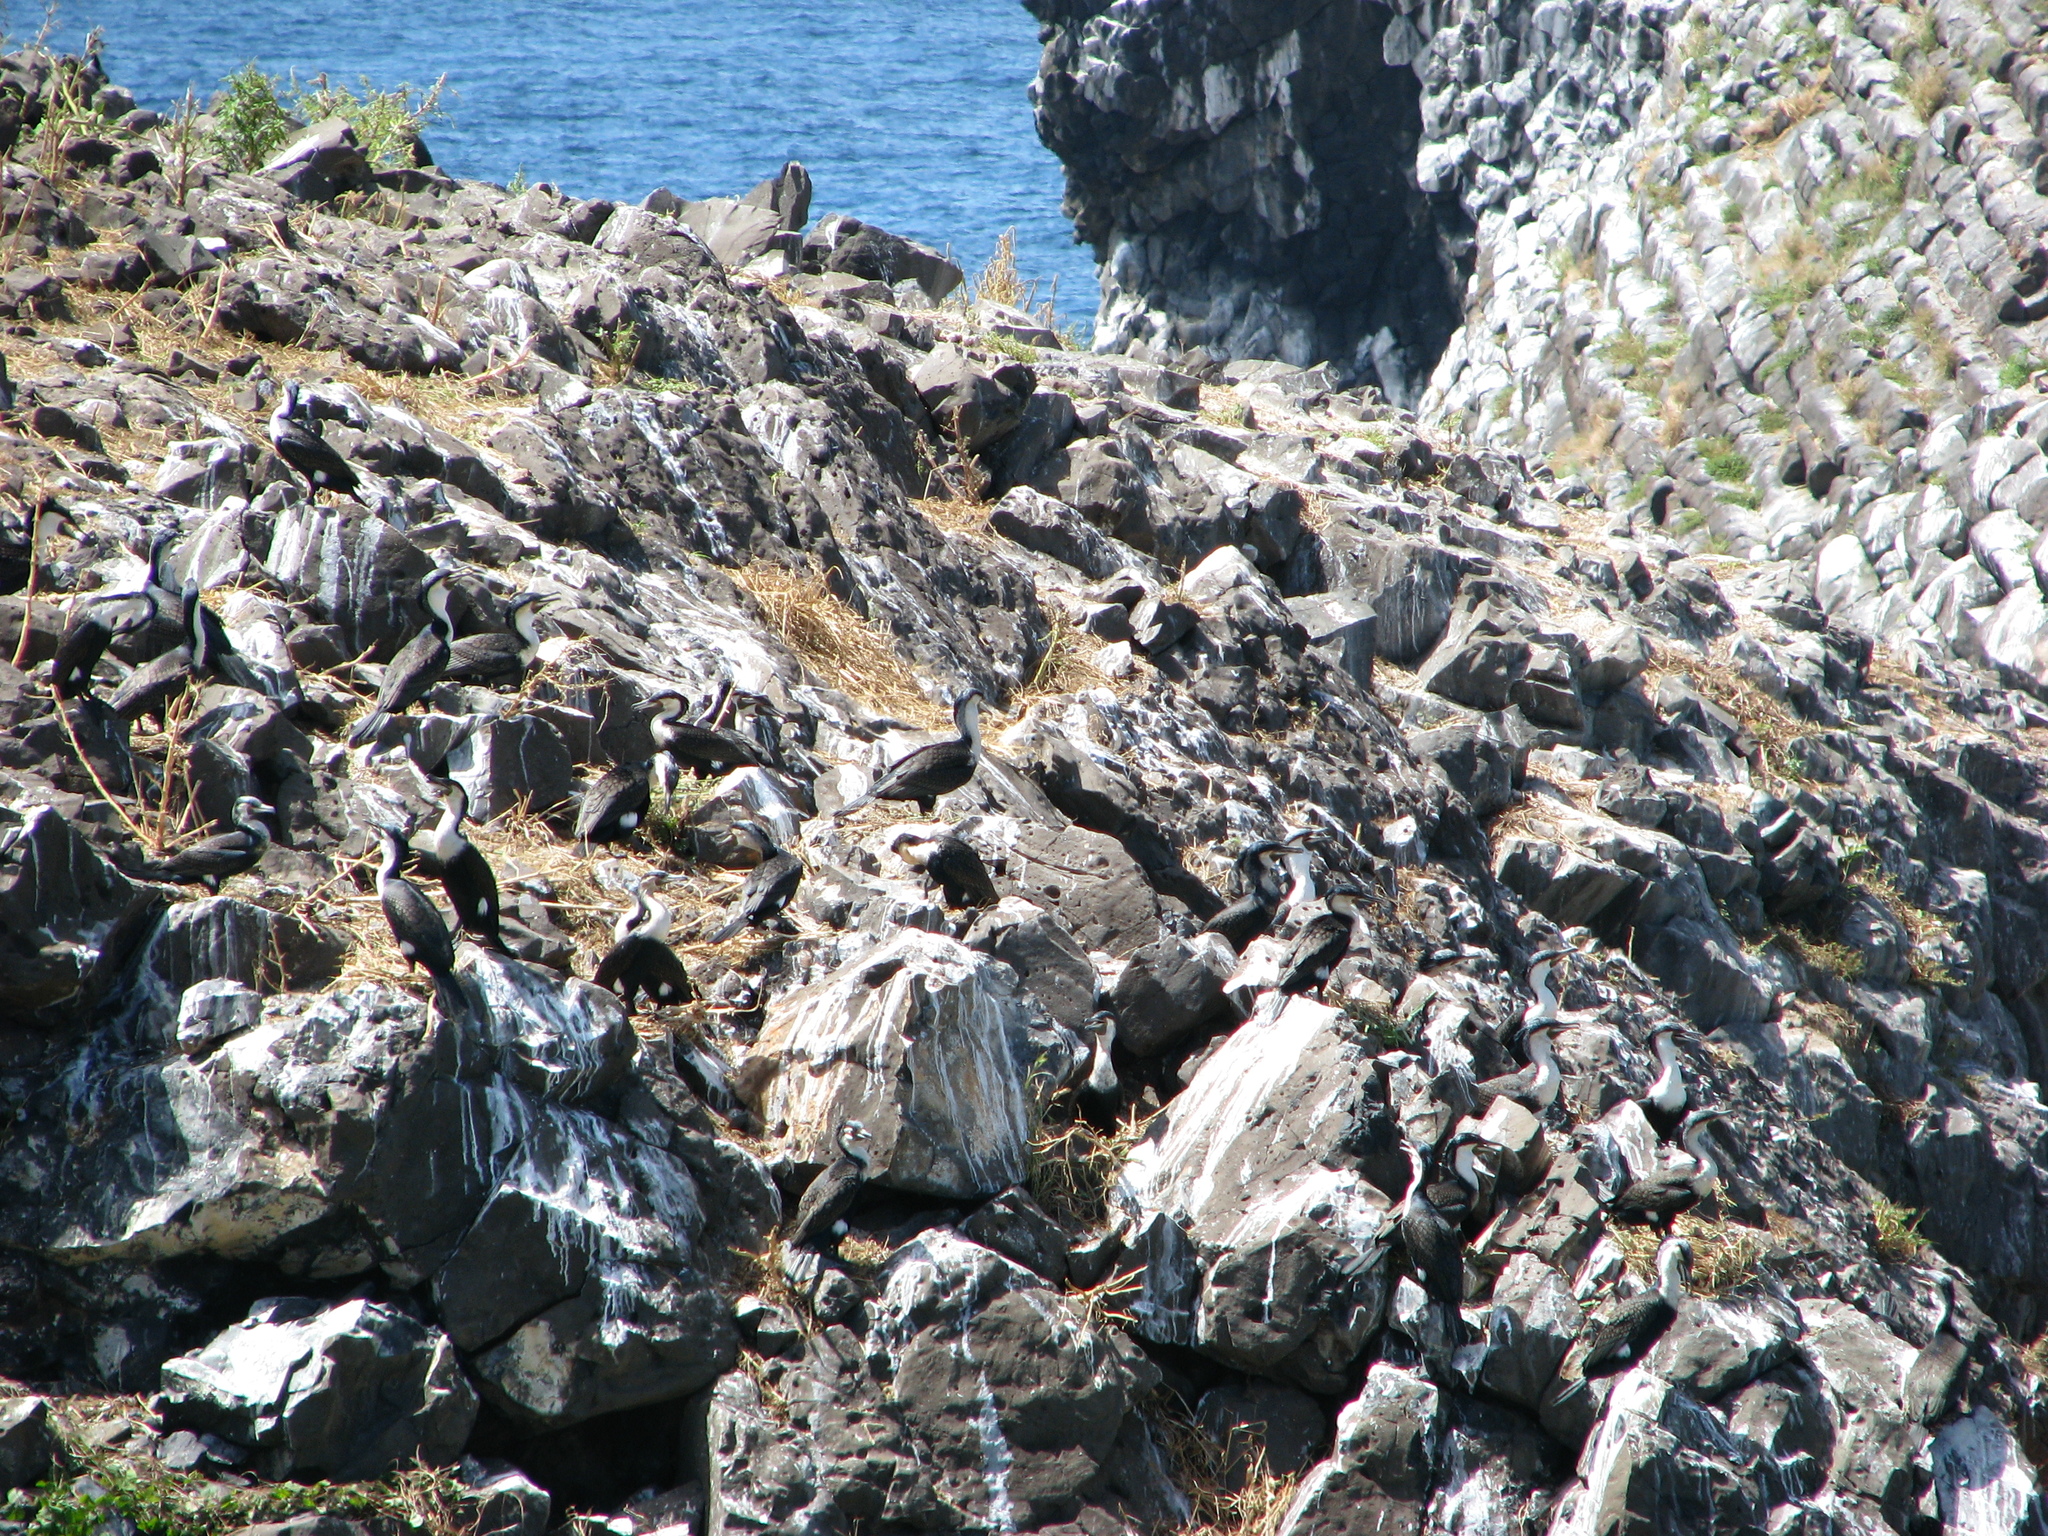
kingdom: Animalia
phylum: Chordata
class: Aves
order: Suliformes
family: Phalacrocoracidae
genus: Phalacrocorax
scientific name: Phalacrocorax carbo
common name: Great cormorant
